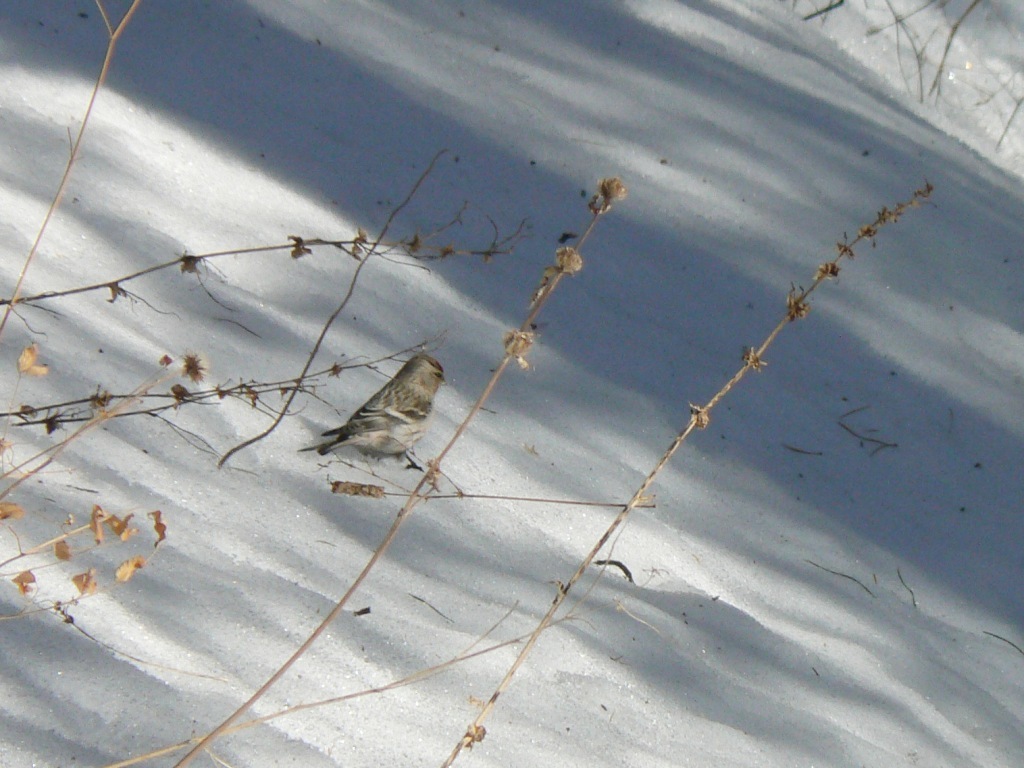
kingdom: Animalia
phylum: Chordata
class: Aves
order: Passeriformes
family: Fringillidae
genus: Acanthis
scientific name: Acanthis flammea
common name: Common redpoll
